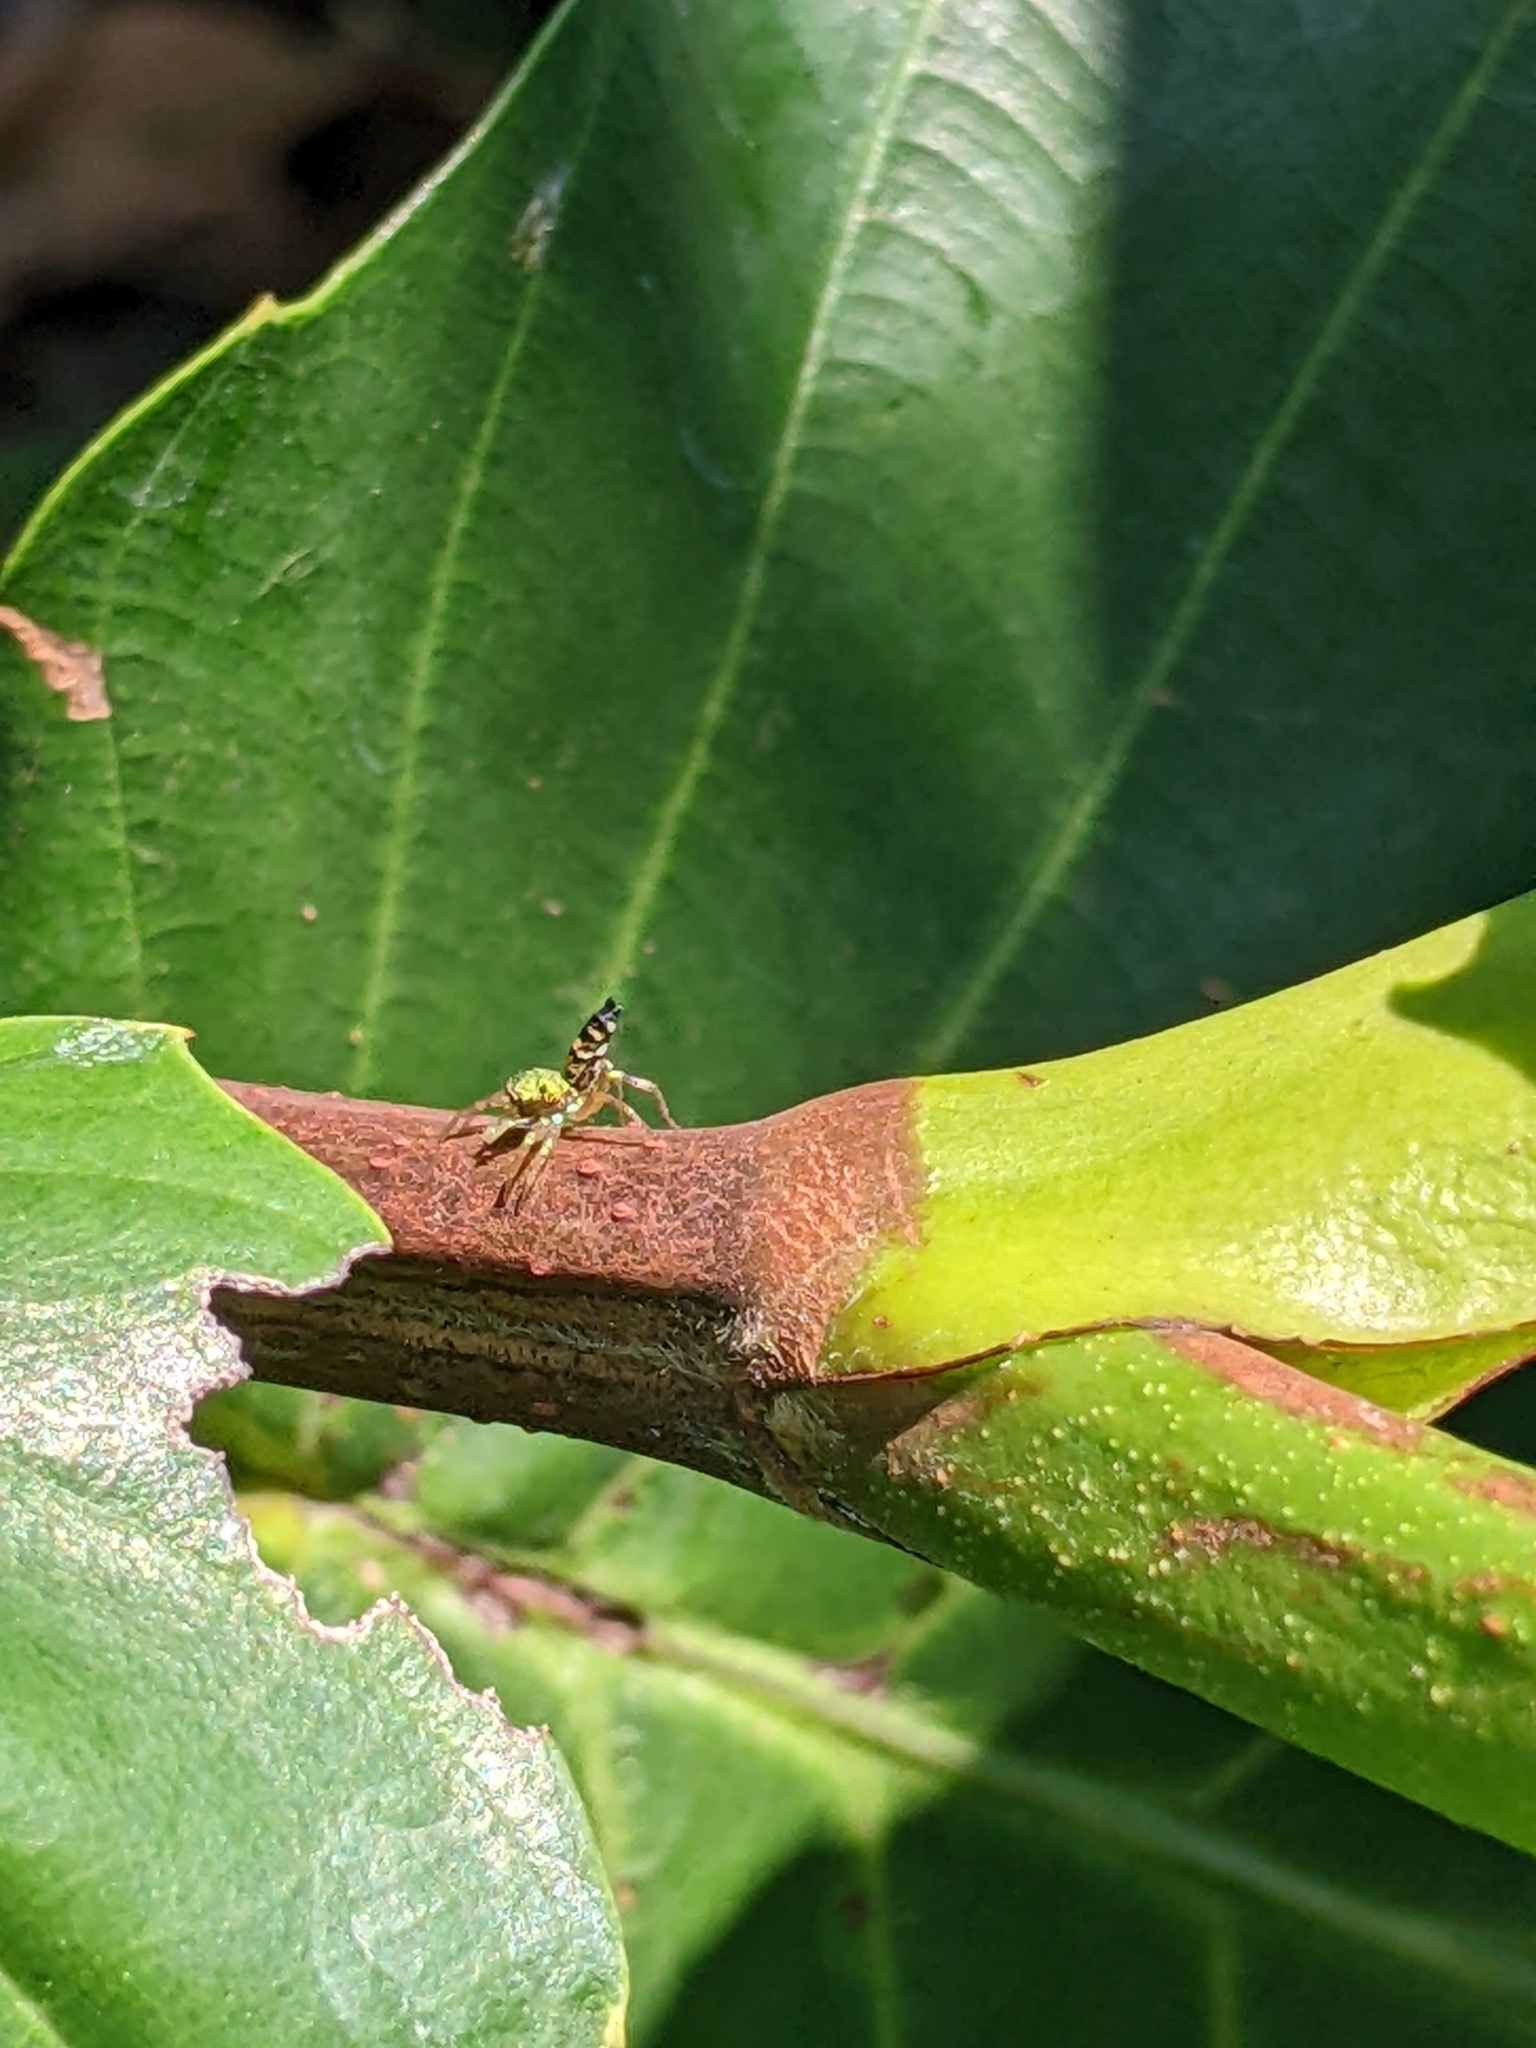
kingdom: Animalia
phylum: Arthropoda
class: Arachnida
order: Araneae
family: Salticidae
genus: Cosmophasis
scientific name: Cosmophasis thalassina
